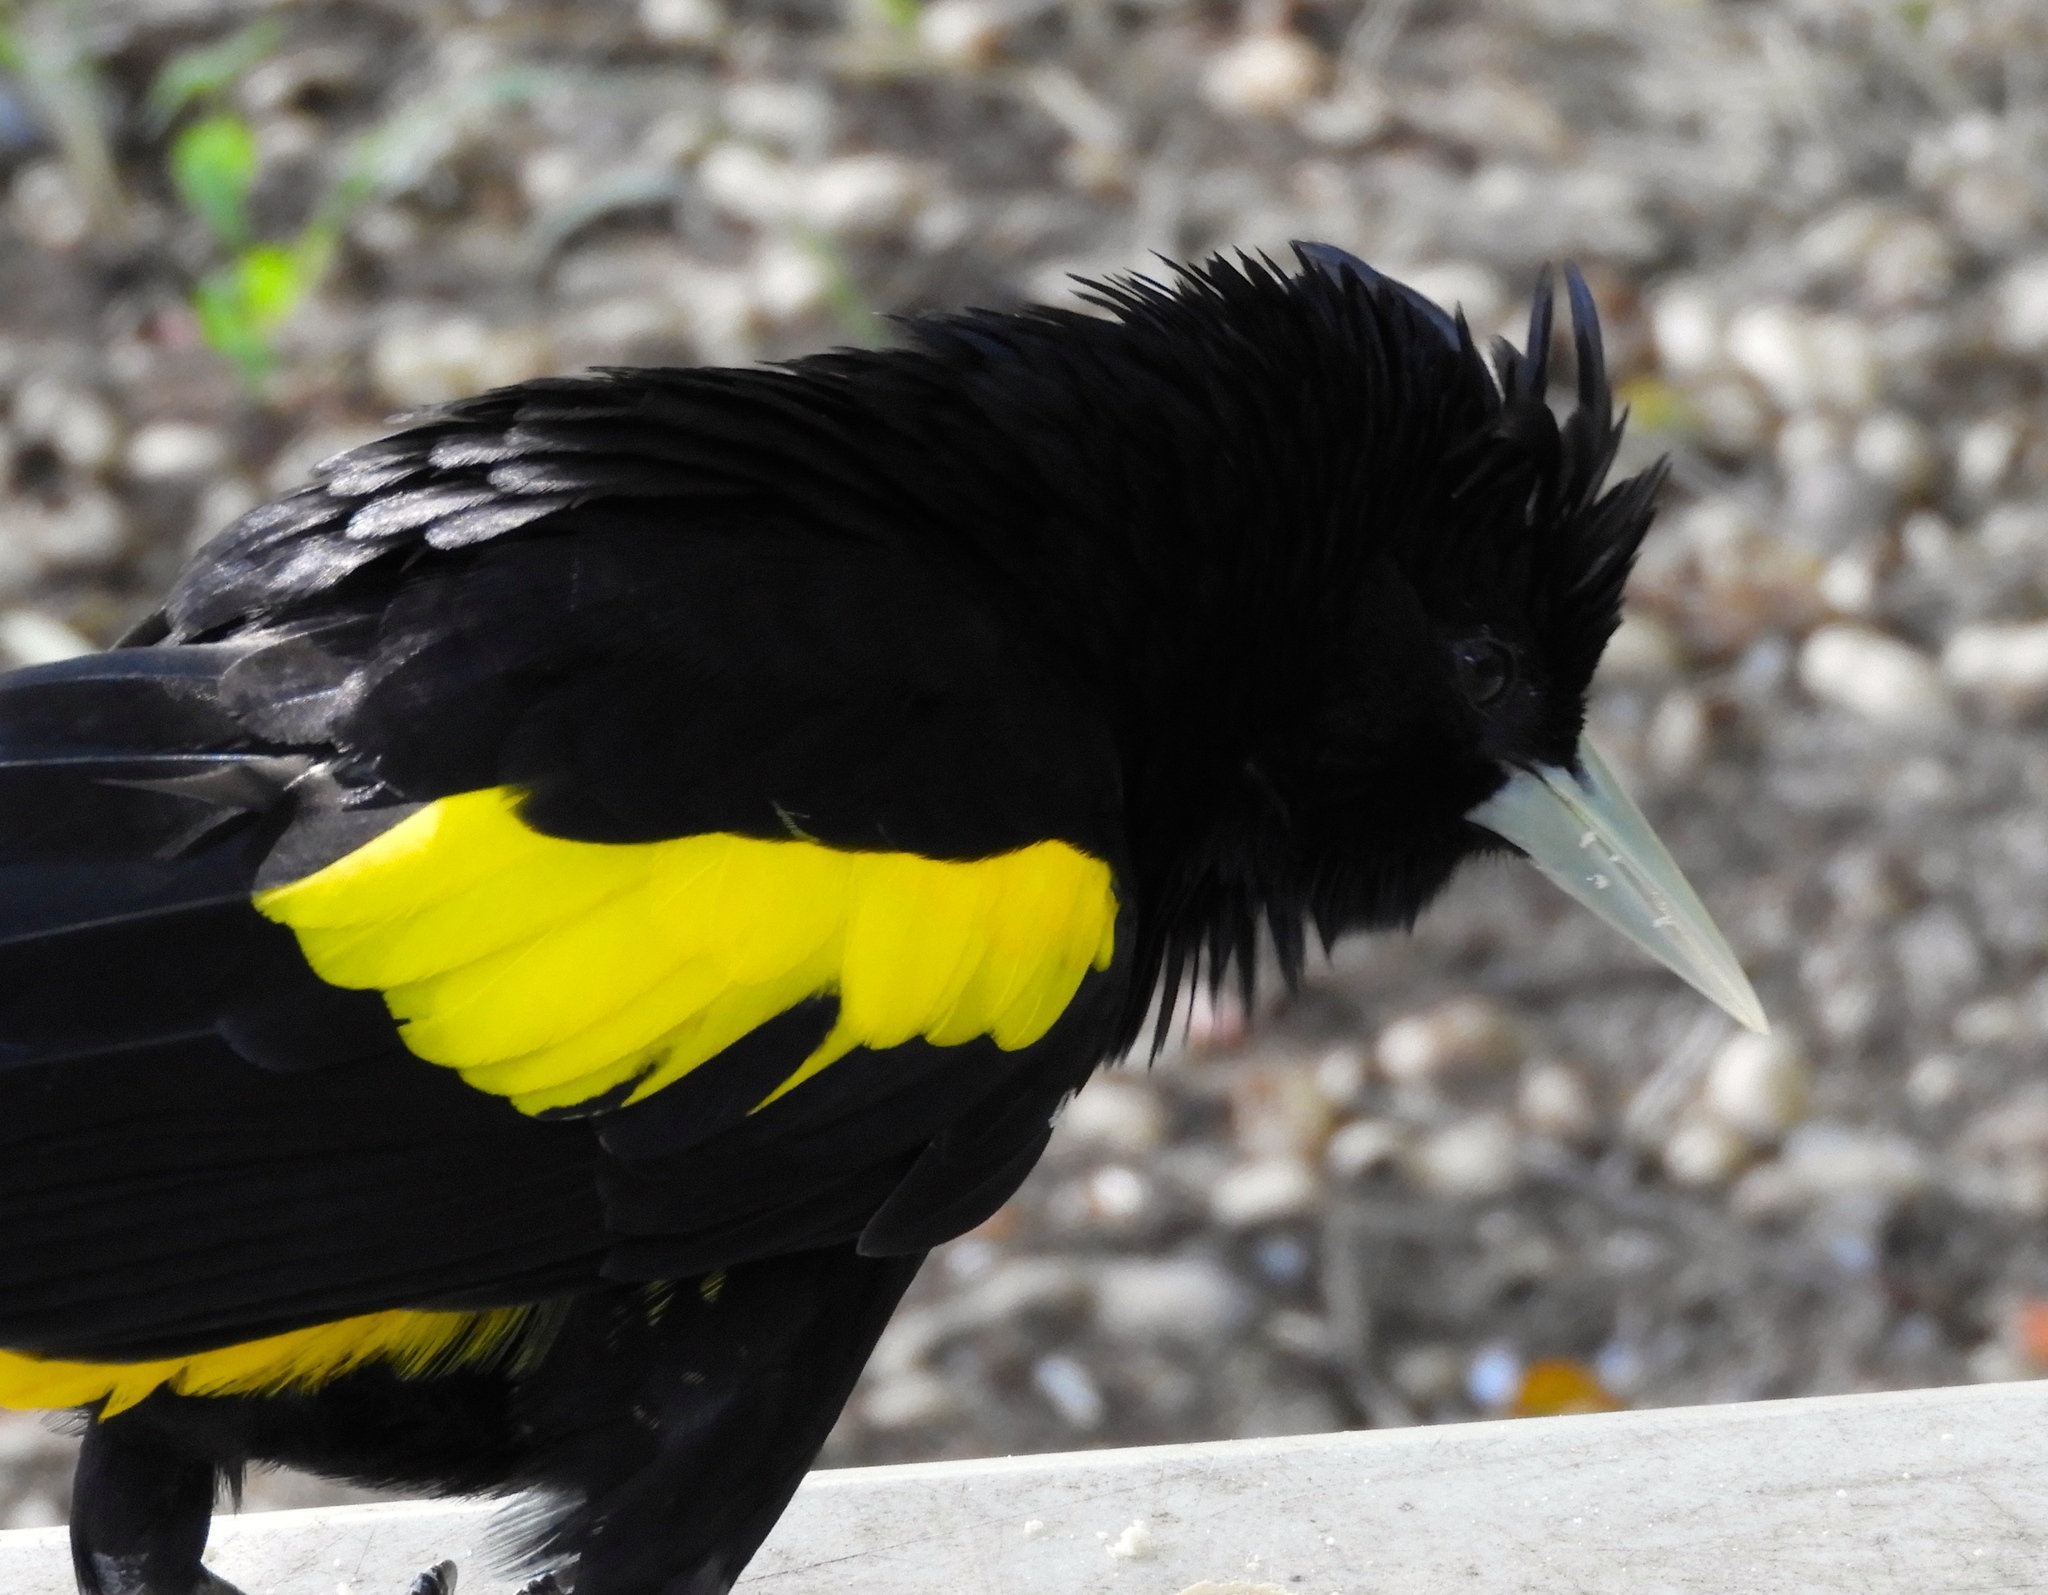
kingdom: Animalia
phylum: Chordata
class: Aves
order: Passeriformes
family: Icteridae
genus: Cacicus
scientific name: Cacicus melanicterus
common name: Yellow-winged cacique
